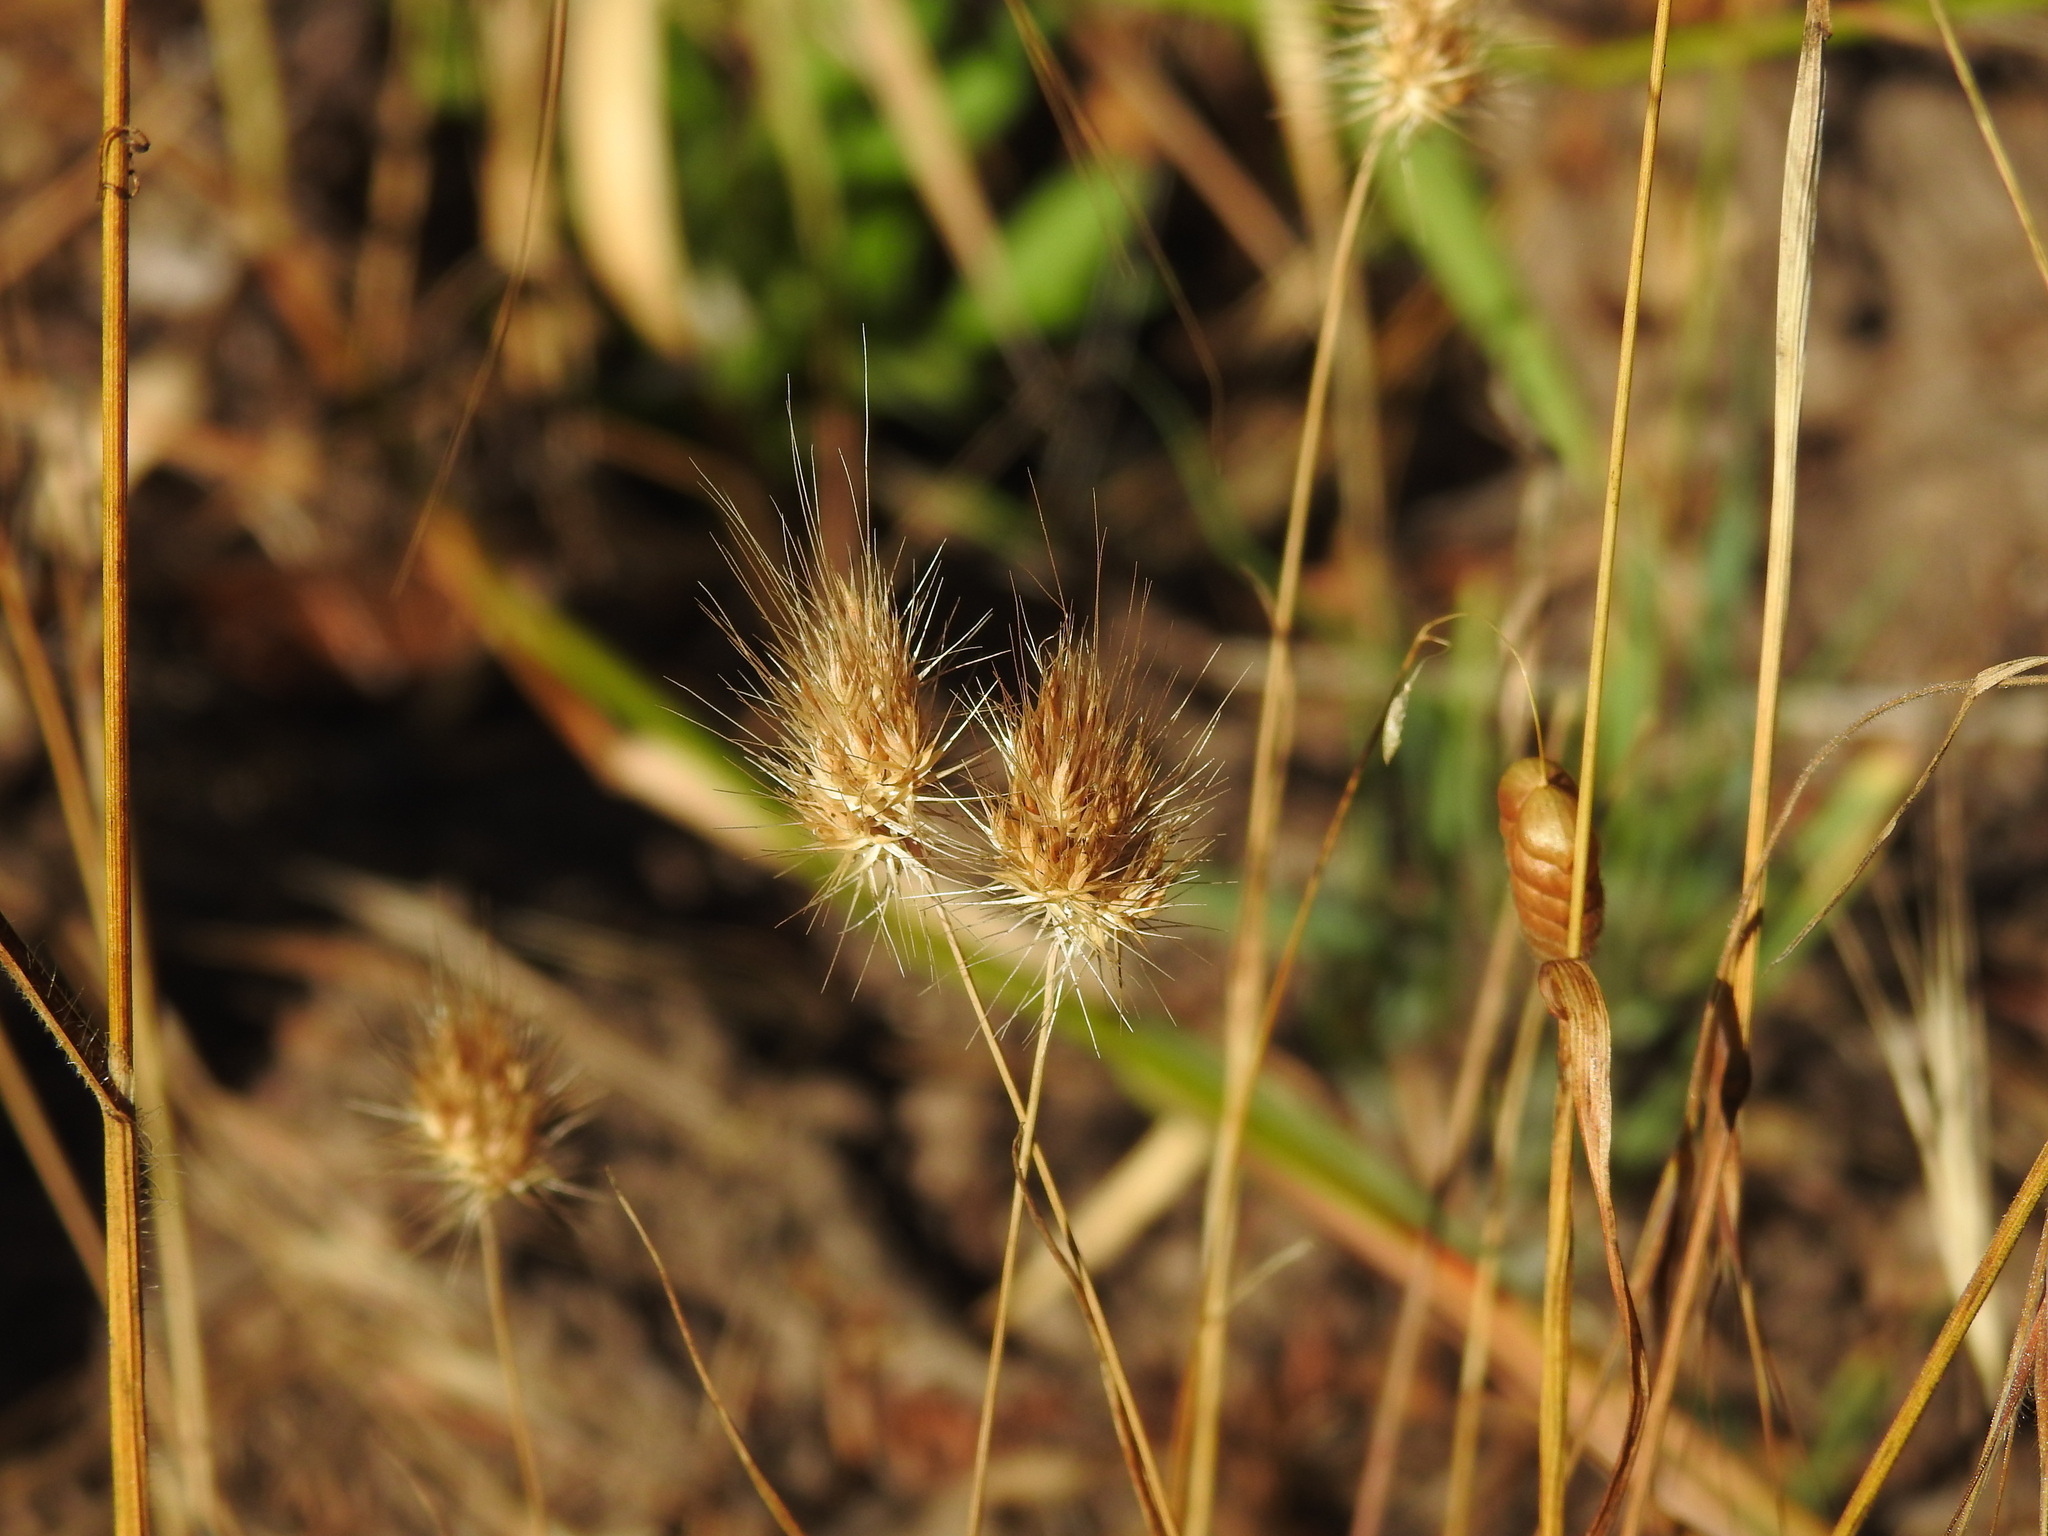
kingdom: Plantae
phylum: Tracheophyta
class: Liliopsida
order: Poales
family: Poaceae
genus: Cynosurus
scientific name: Cynosurus echinatus
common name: Rough dog's-tail
